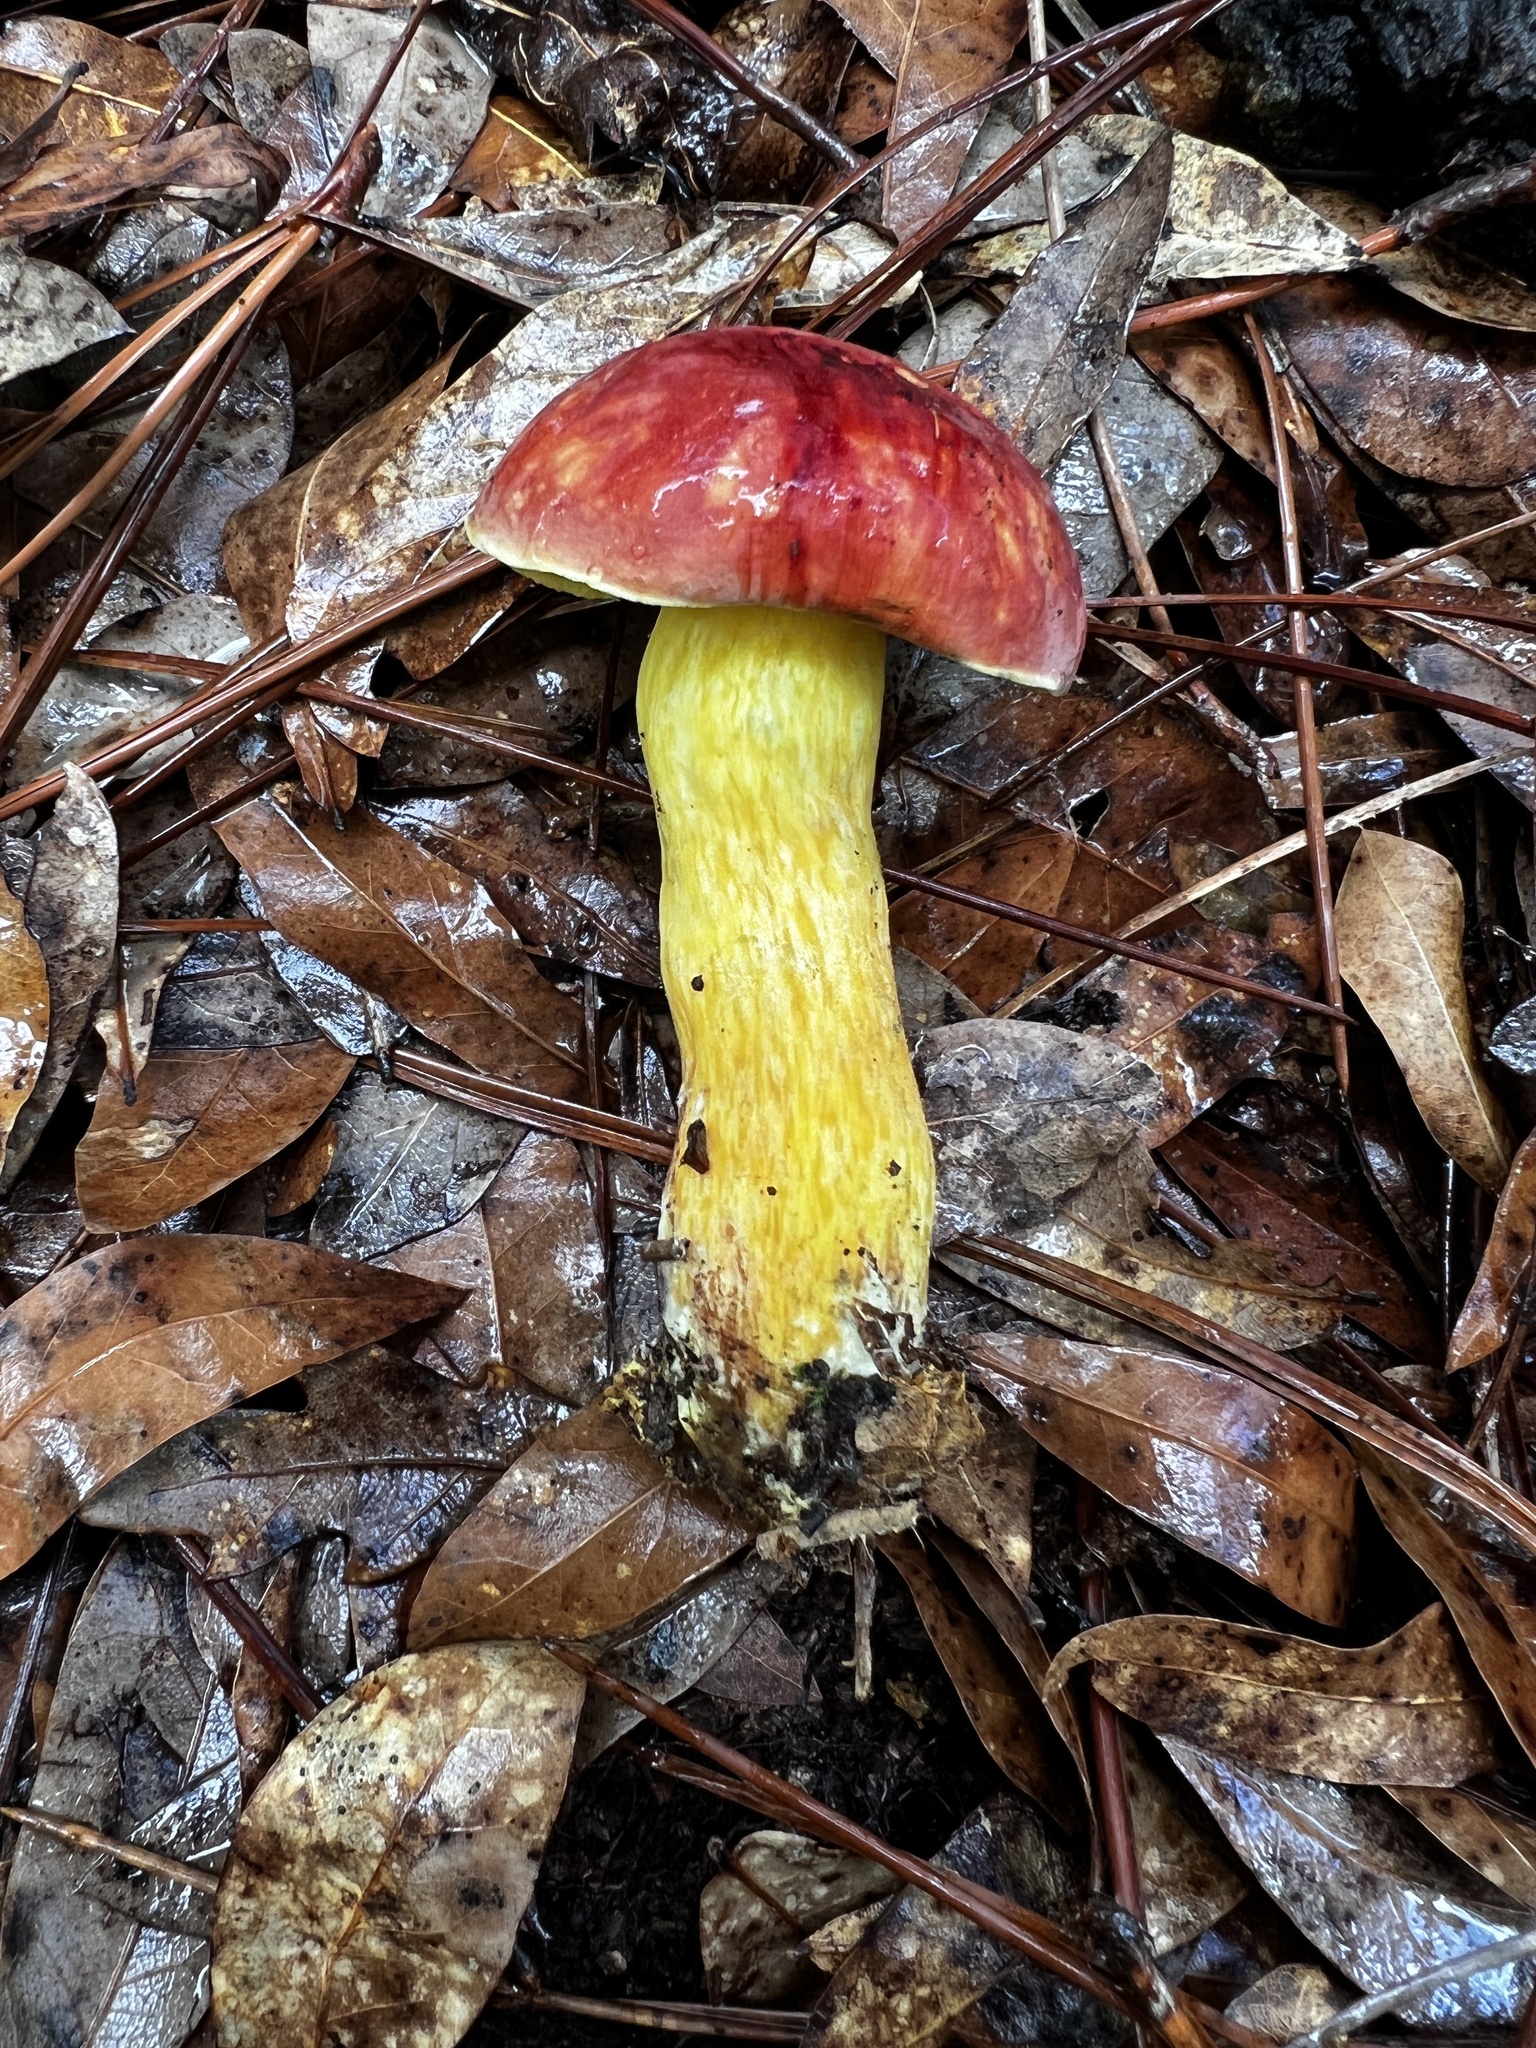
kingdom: Fungi
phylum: Basidiomycota
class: Agaricomycetes
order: Boletales
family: Boletaceae
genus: Pulchroboletus
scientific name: Pulchroboletus sclerotiorum
